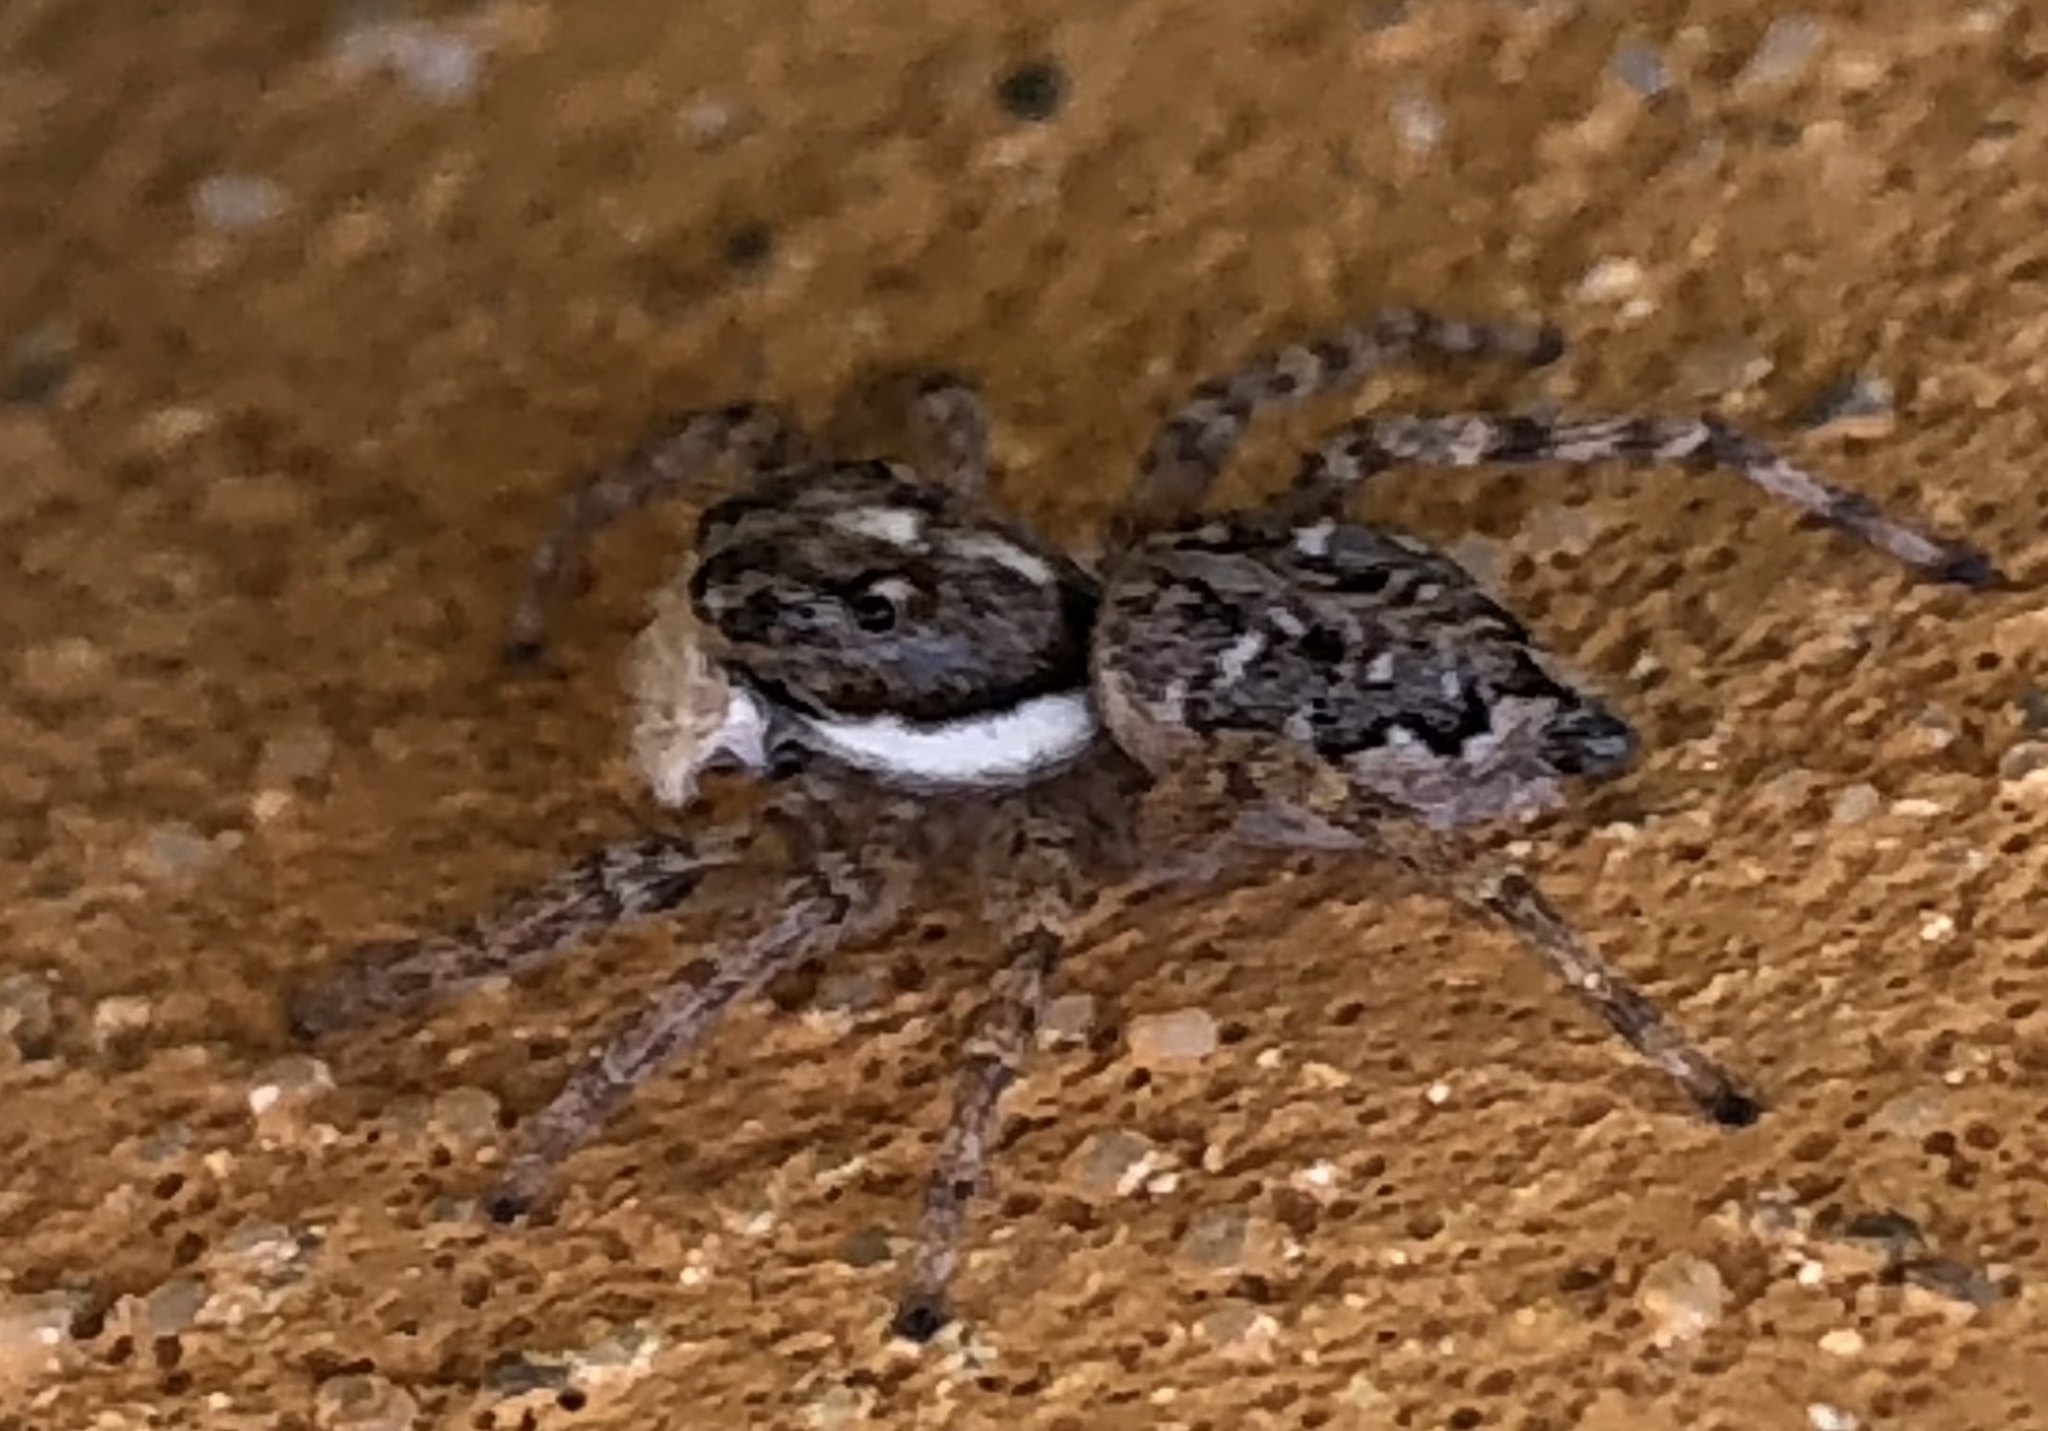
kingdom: Animalia
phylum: Arthropoda
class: Arachnida
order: Araneae
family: Salticidae
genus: Menemerus
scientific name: Menemerus semilimbatus
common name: Jumping spider
